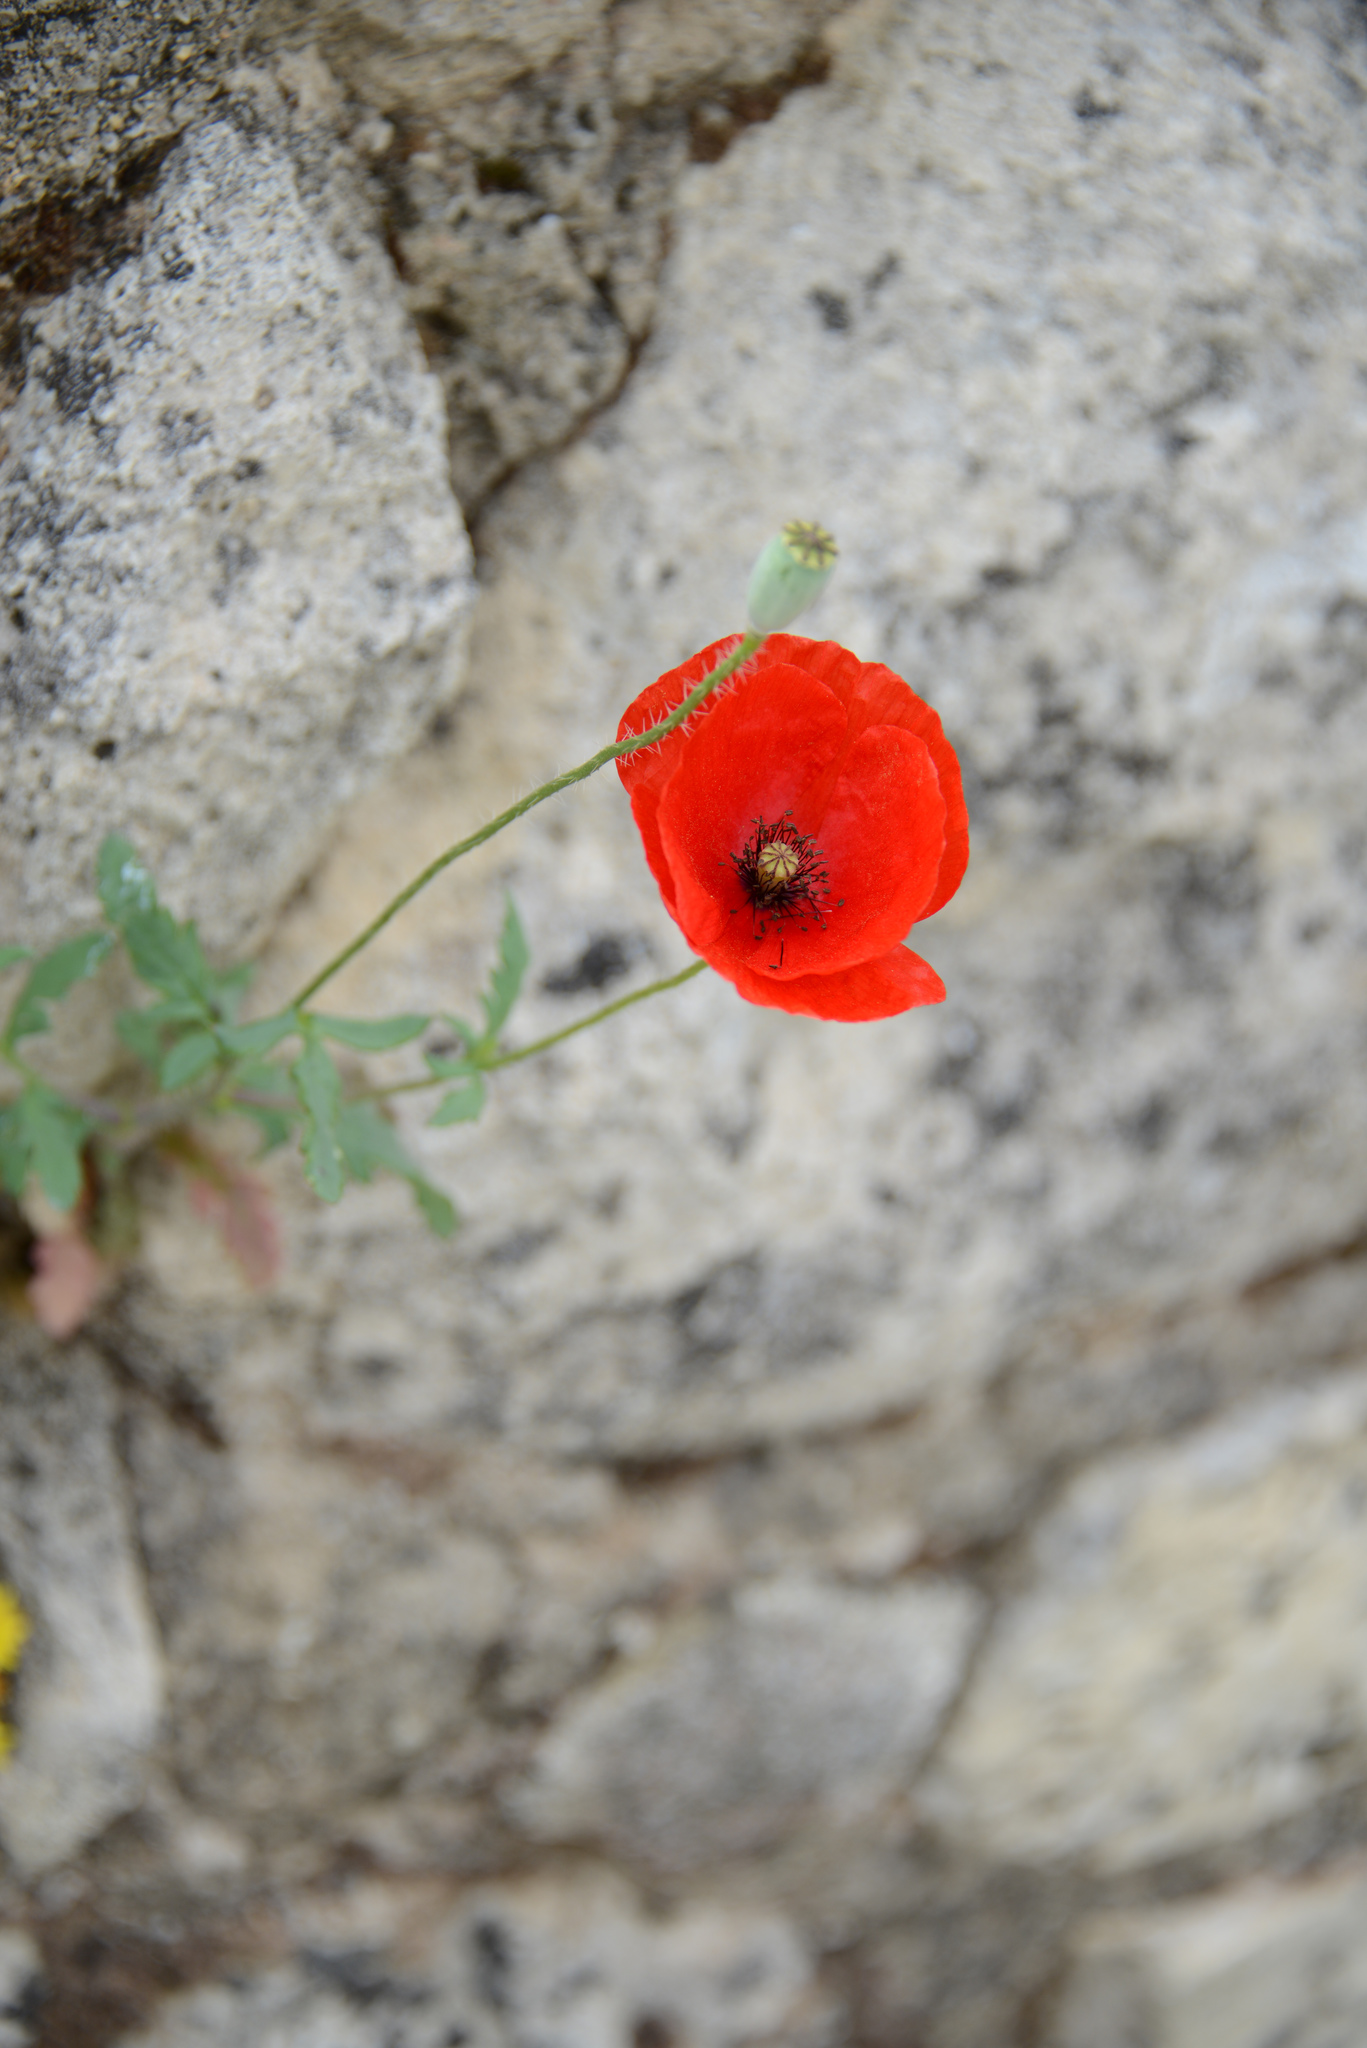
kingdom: Plantae
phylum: Tracheophyta
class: Magnoliopsida
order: Ranunculales
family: Papaveraceae
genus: Papaver
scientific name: Papaver rhoeas
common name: Corn poppy
